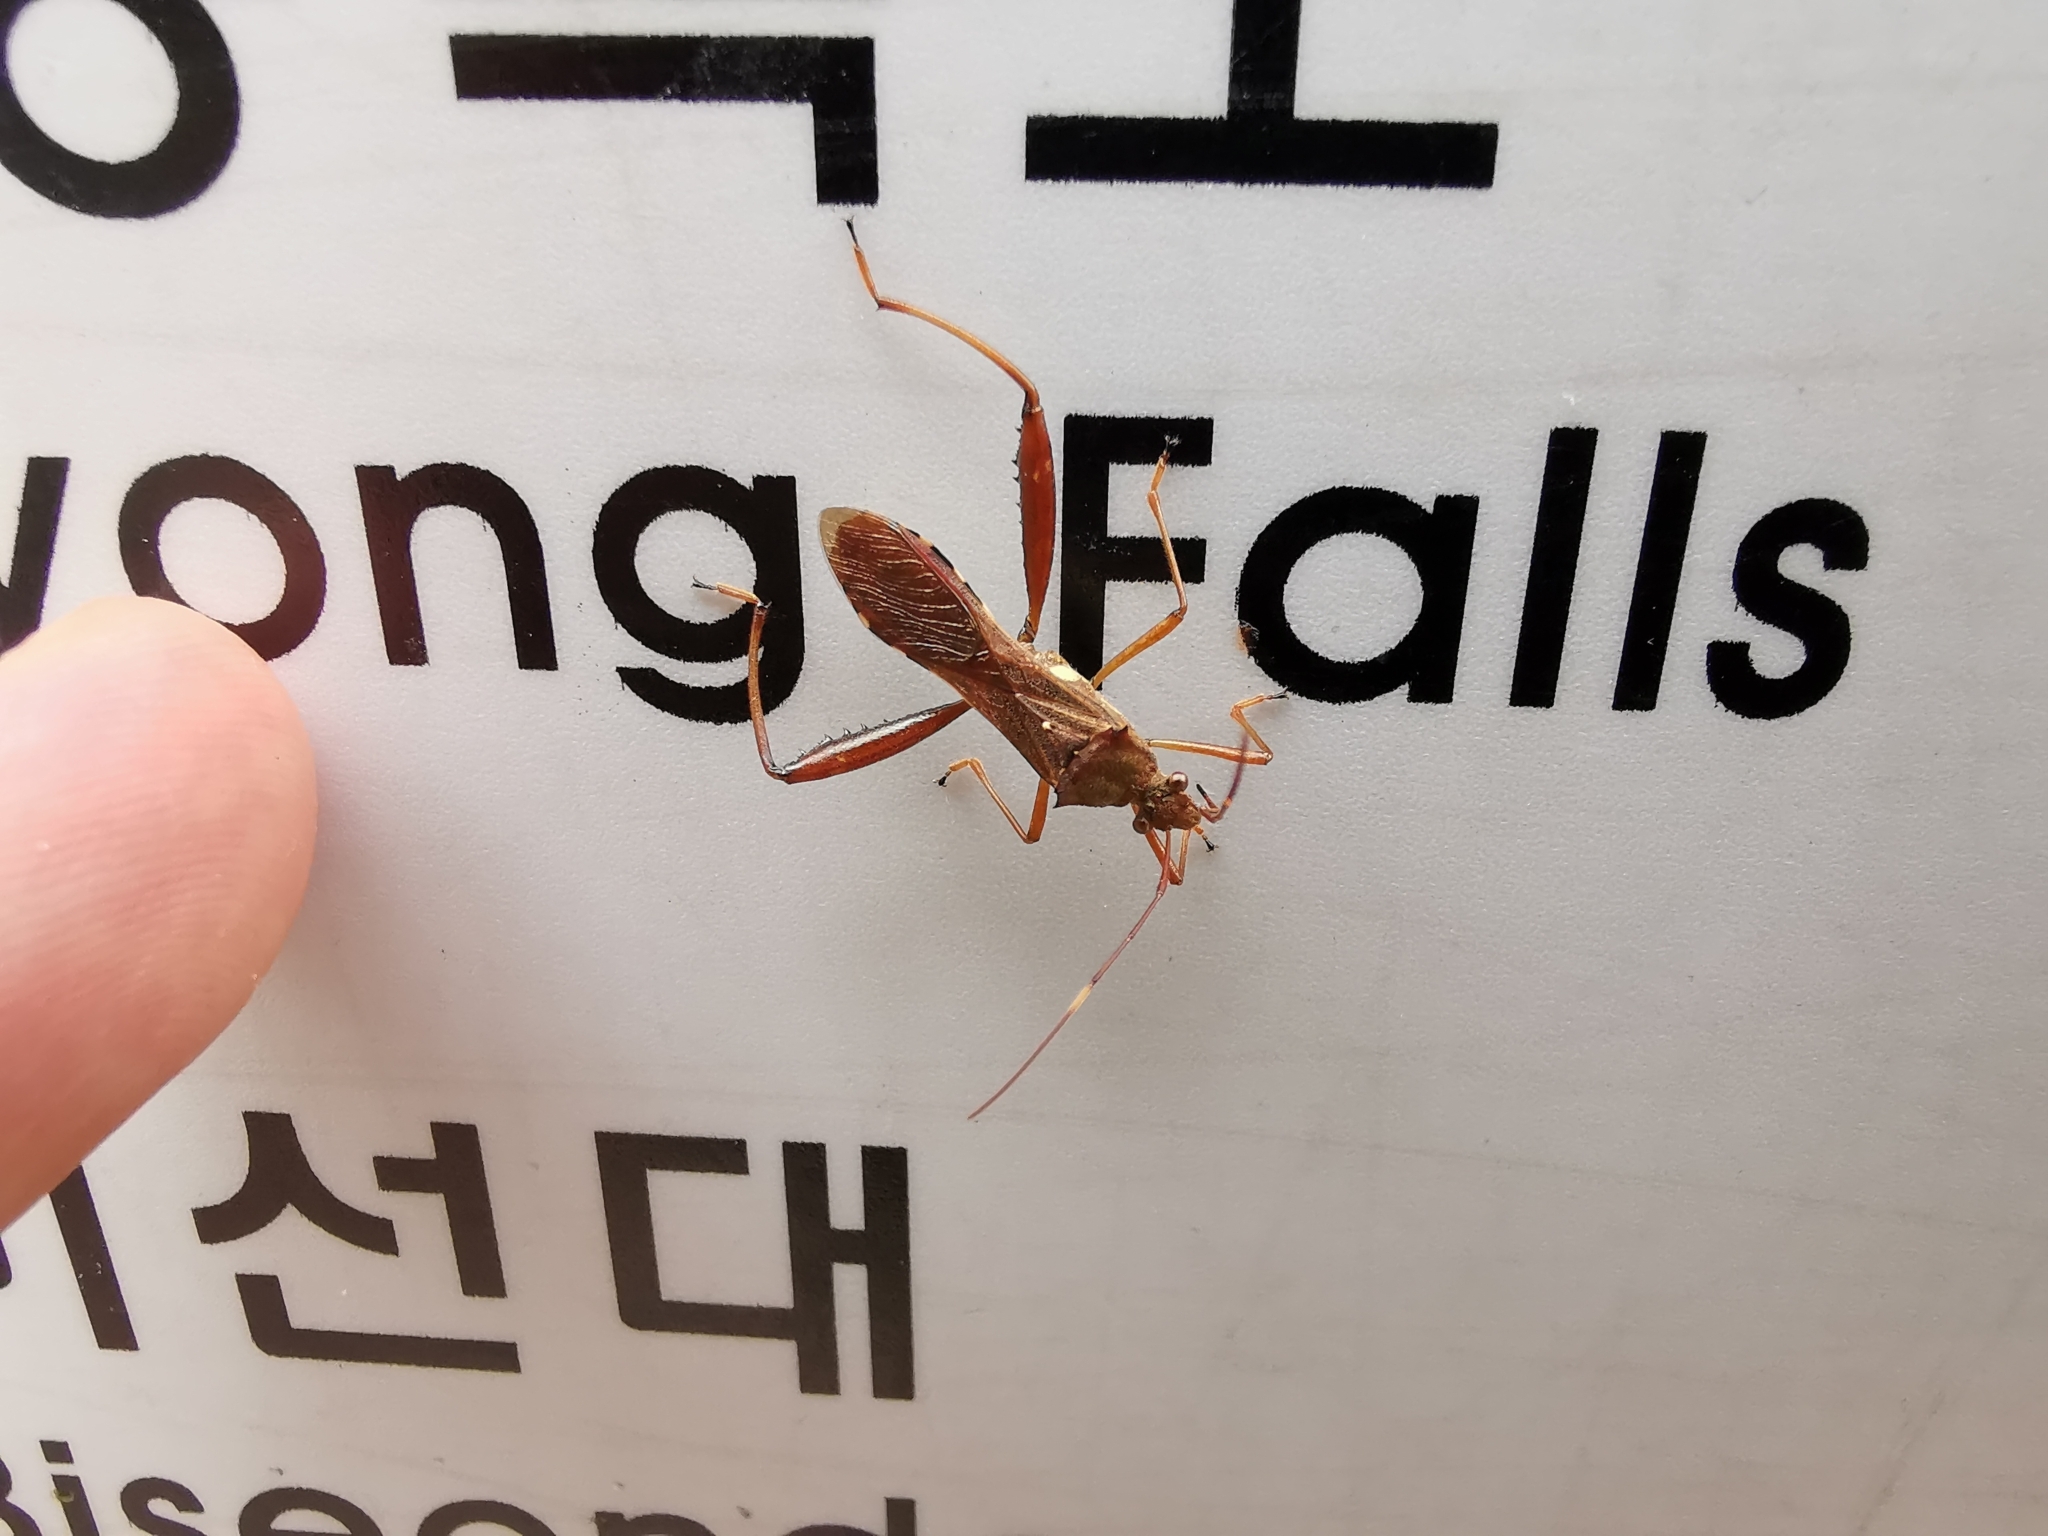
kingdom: Animalia
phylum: Arthropoda
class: Insecta
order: Hemiptera
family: Alydidae
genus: Riptortus
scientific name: Riptortus pedestris
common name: Bean bug
